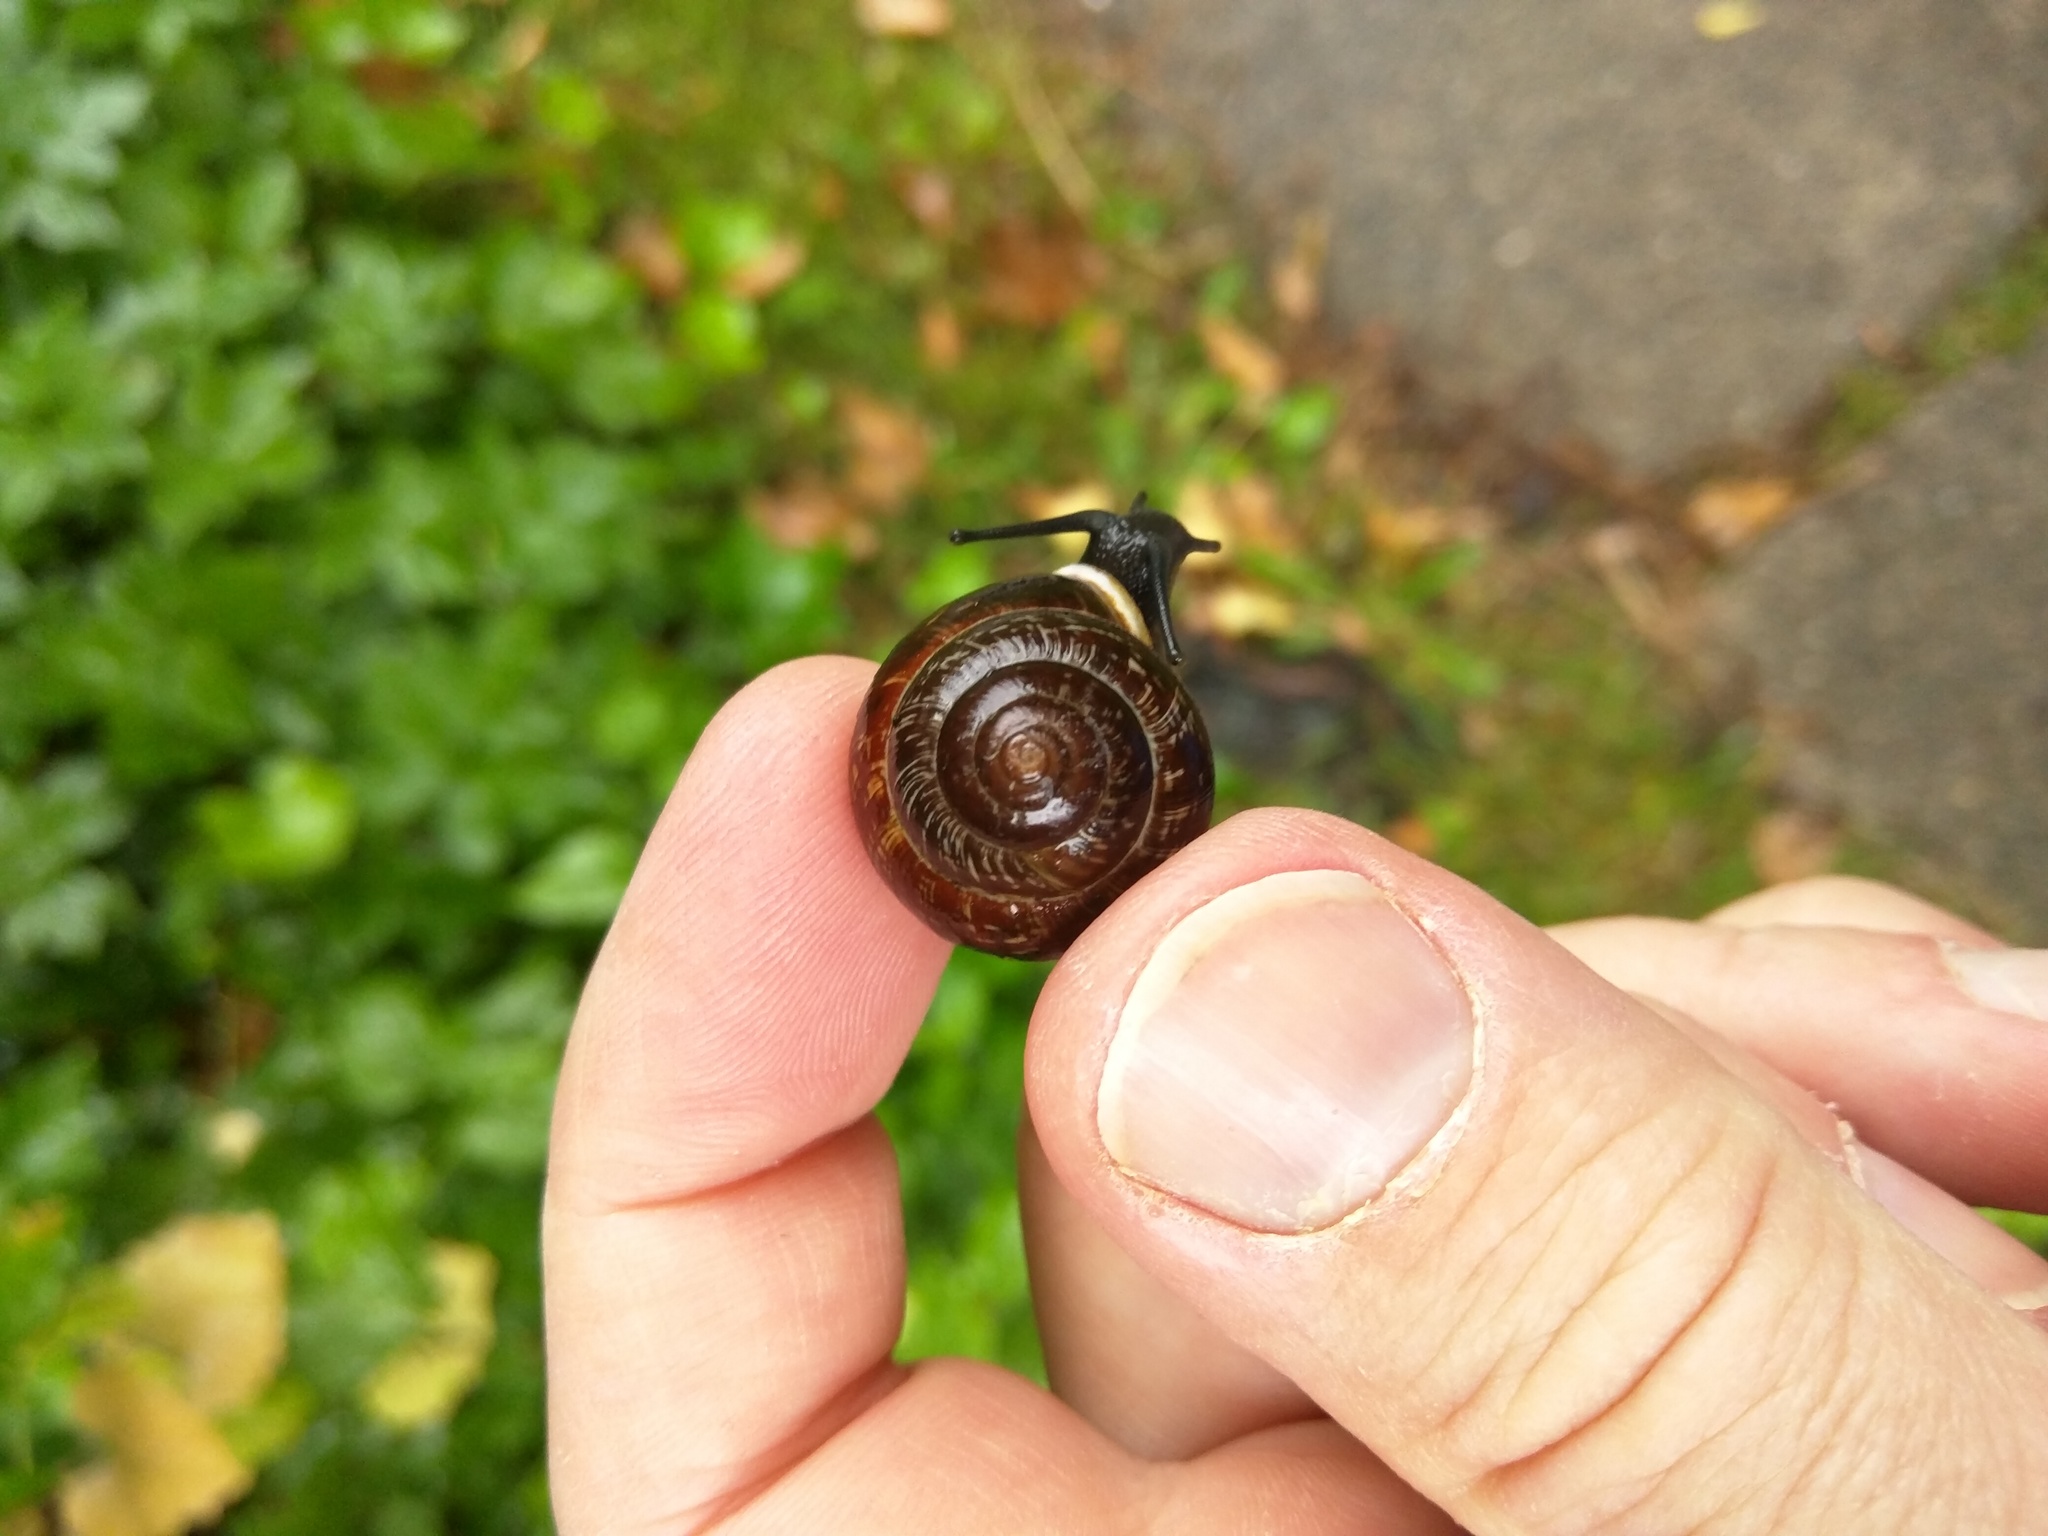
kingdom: Animalia
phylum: Mollusca
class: Gastropoda
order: Stylommatophora
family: Helicidae
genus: Arianta
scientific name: Arianta arbustorum
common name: Copse snail
